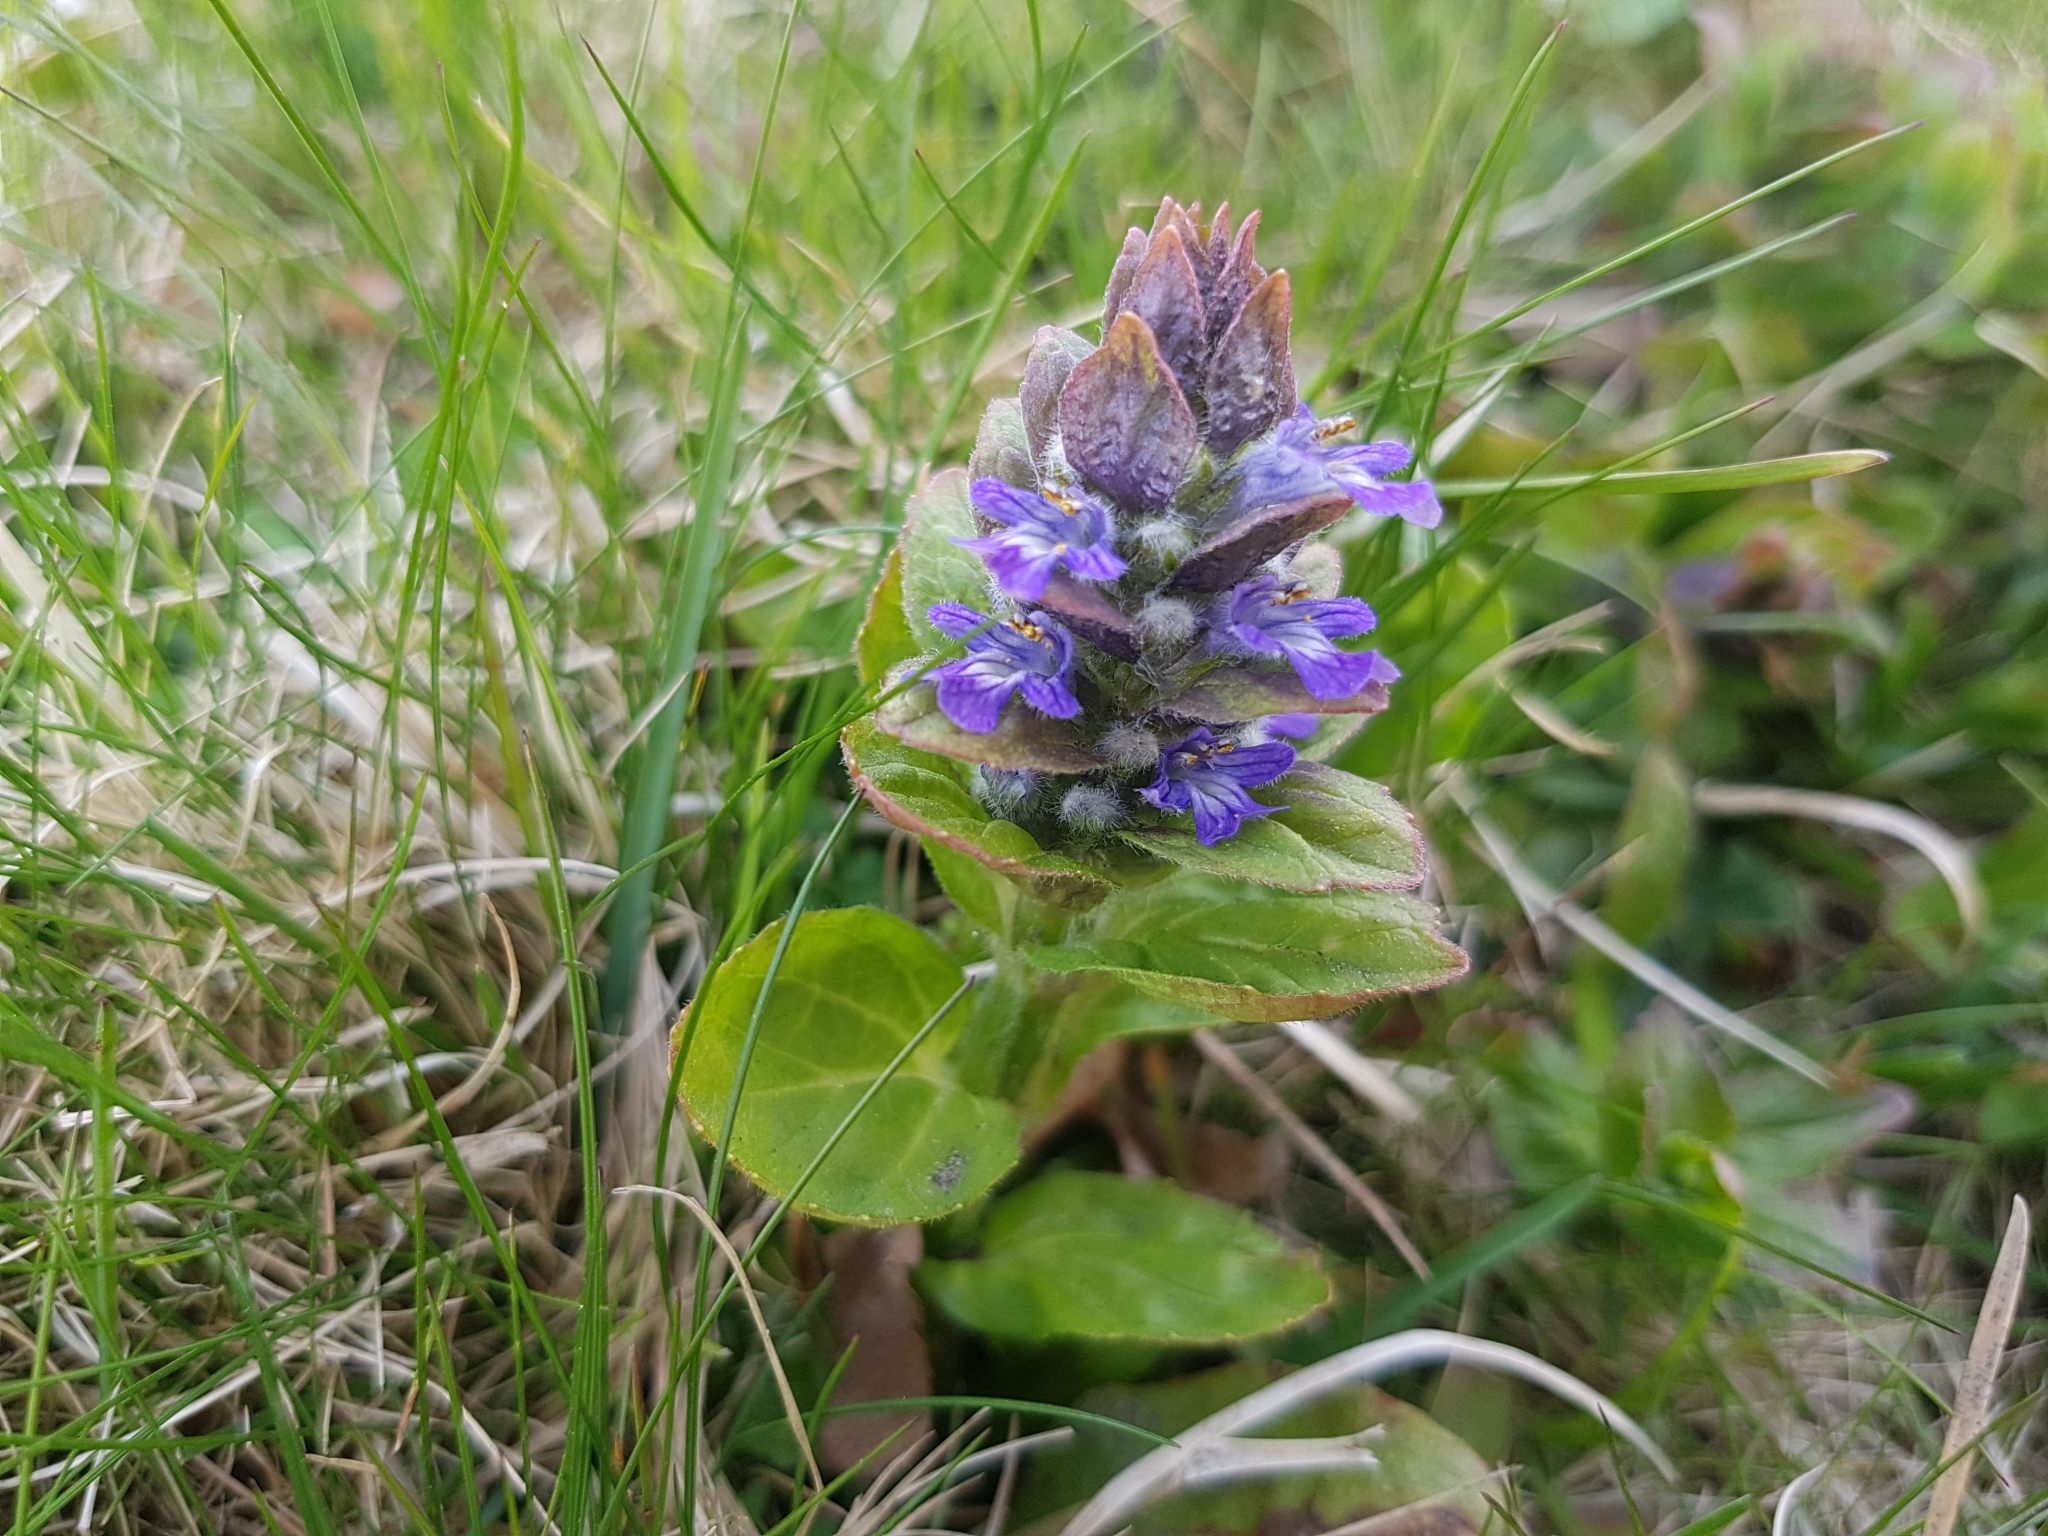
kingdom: Plantae
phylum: Tracheophyta
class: Magnoliopsida
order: Lamiales
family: Lamiaceae
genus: Ajuga
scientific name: Ajuga reptans
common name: Bugle
